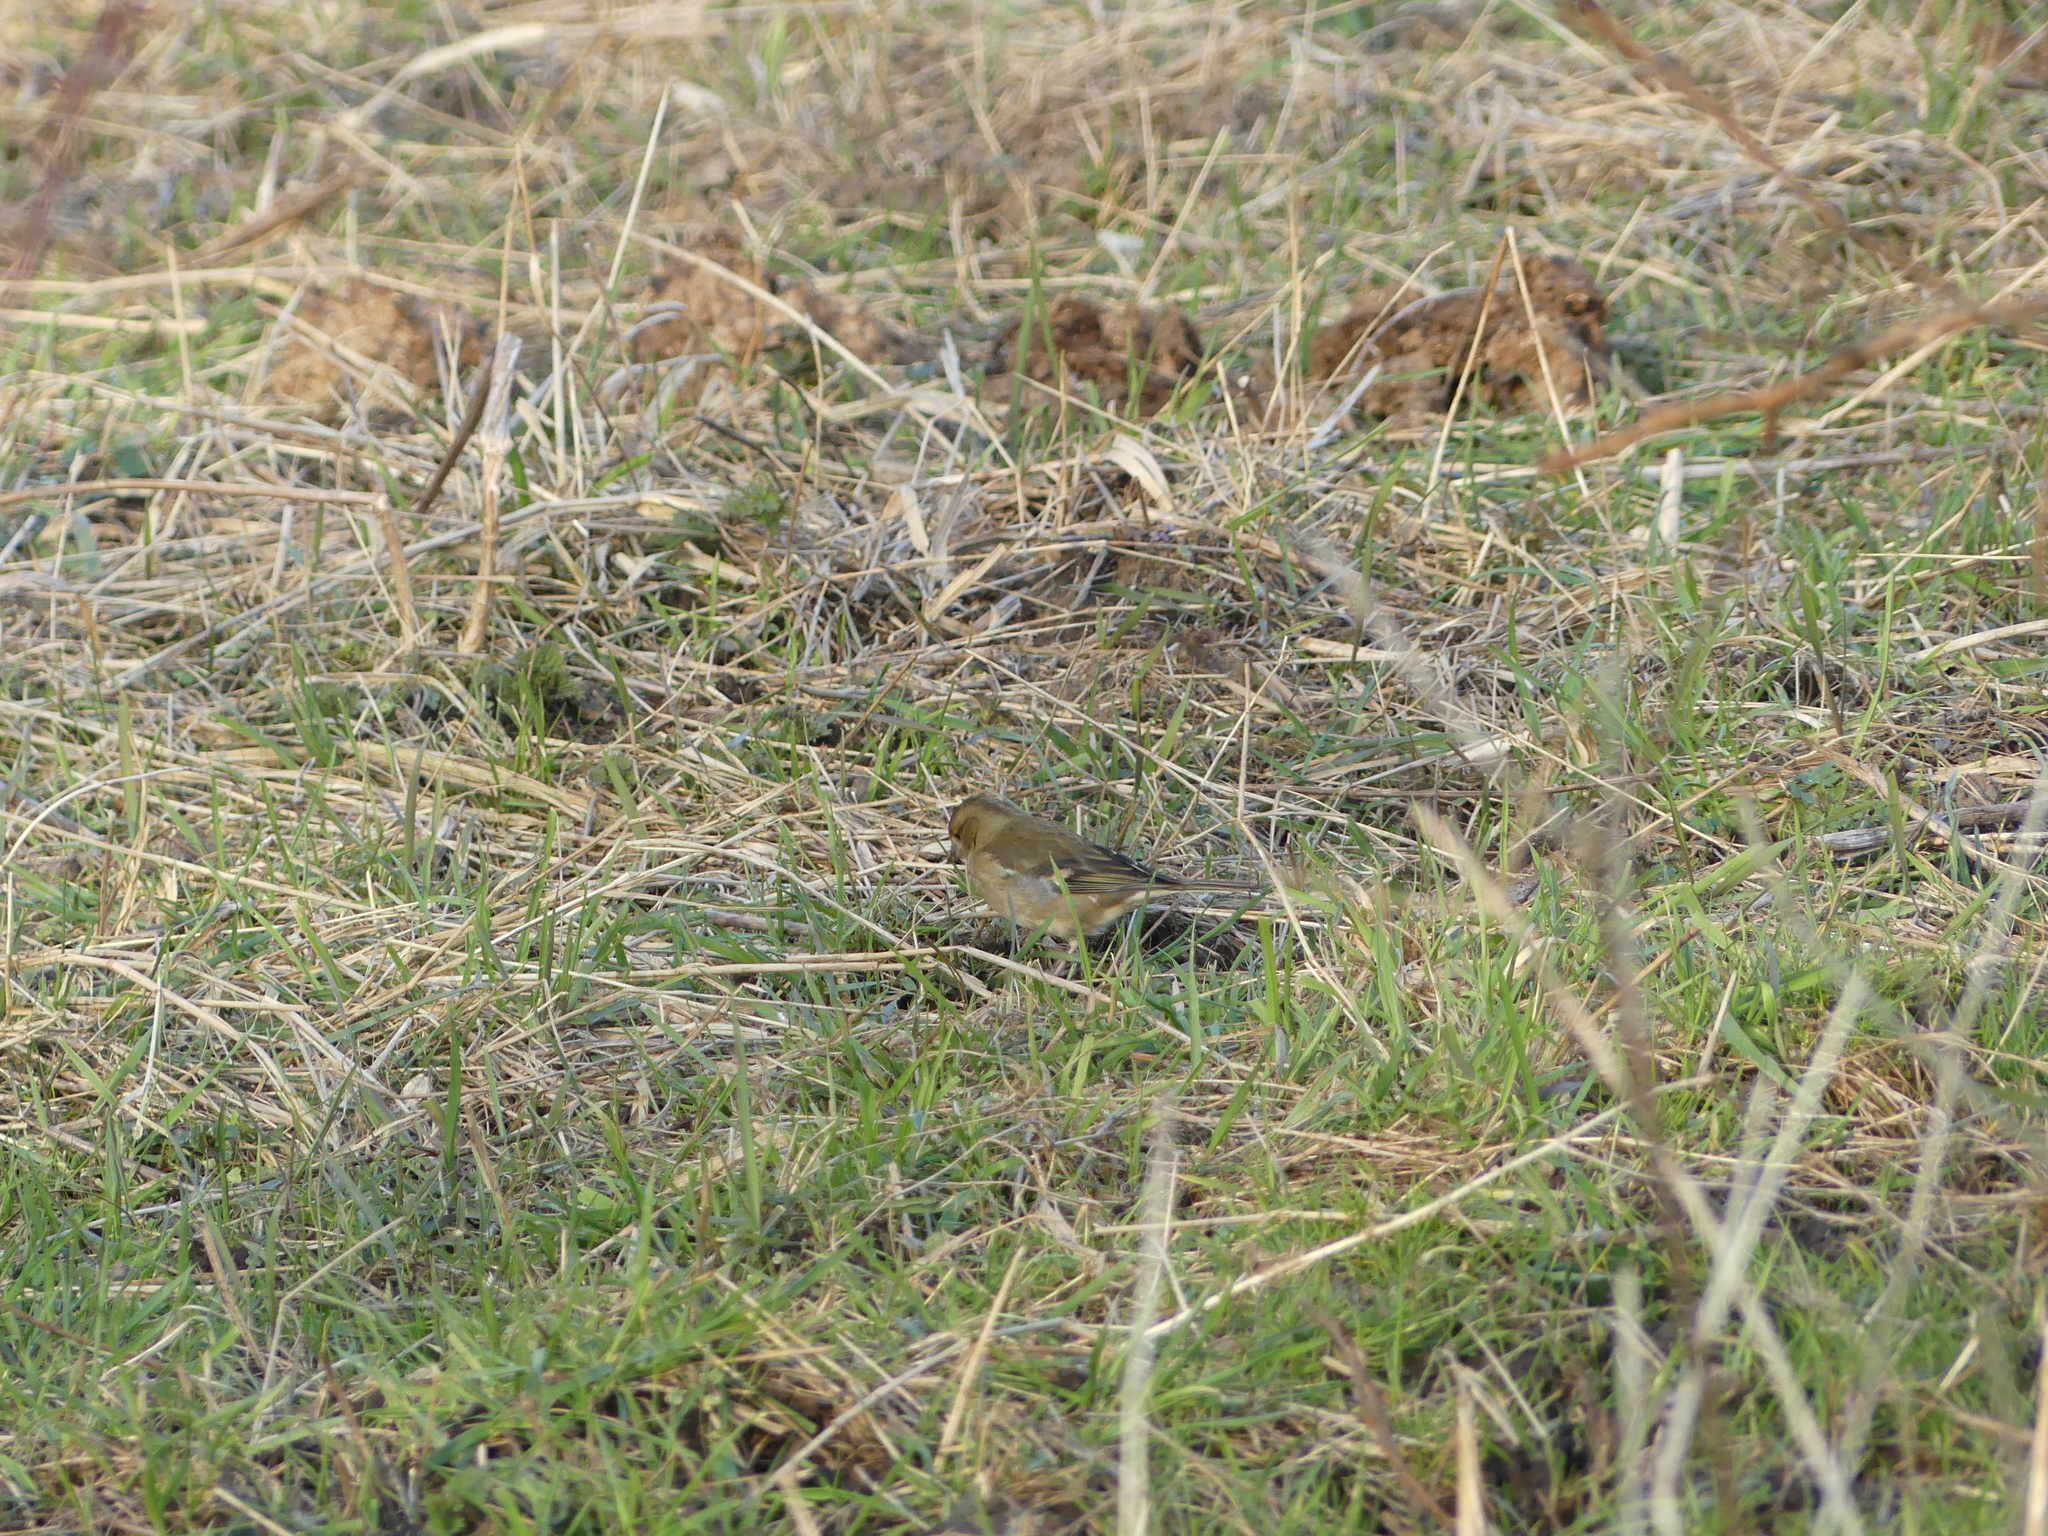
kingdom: Animalia
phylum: Chordata
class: Aves
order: Passeriformes
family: Fringillidae
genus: Fringilla
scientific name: Fringilla coelebs
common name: Common chaffinch
